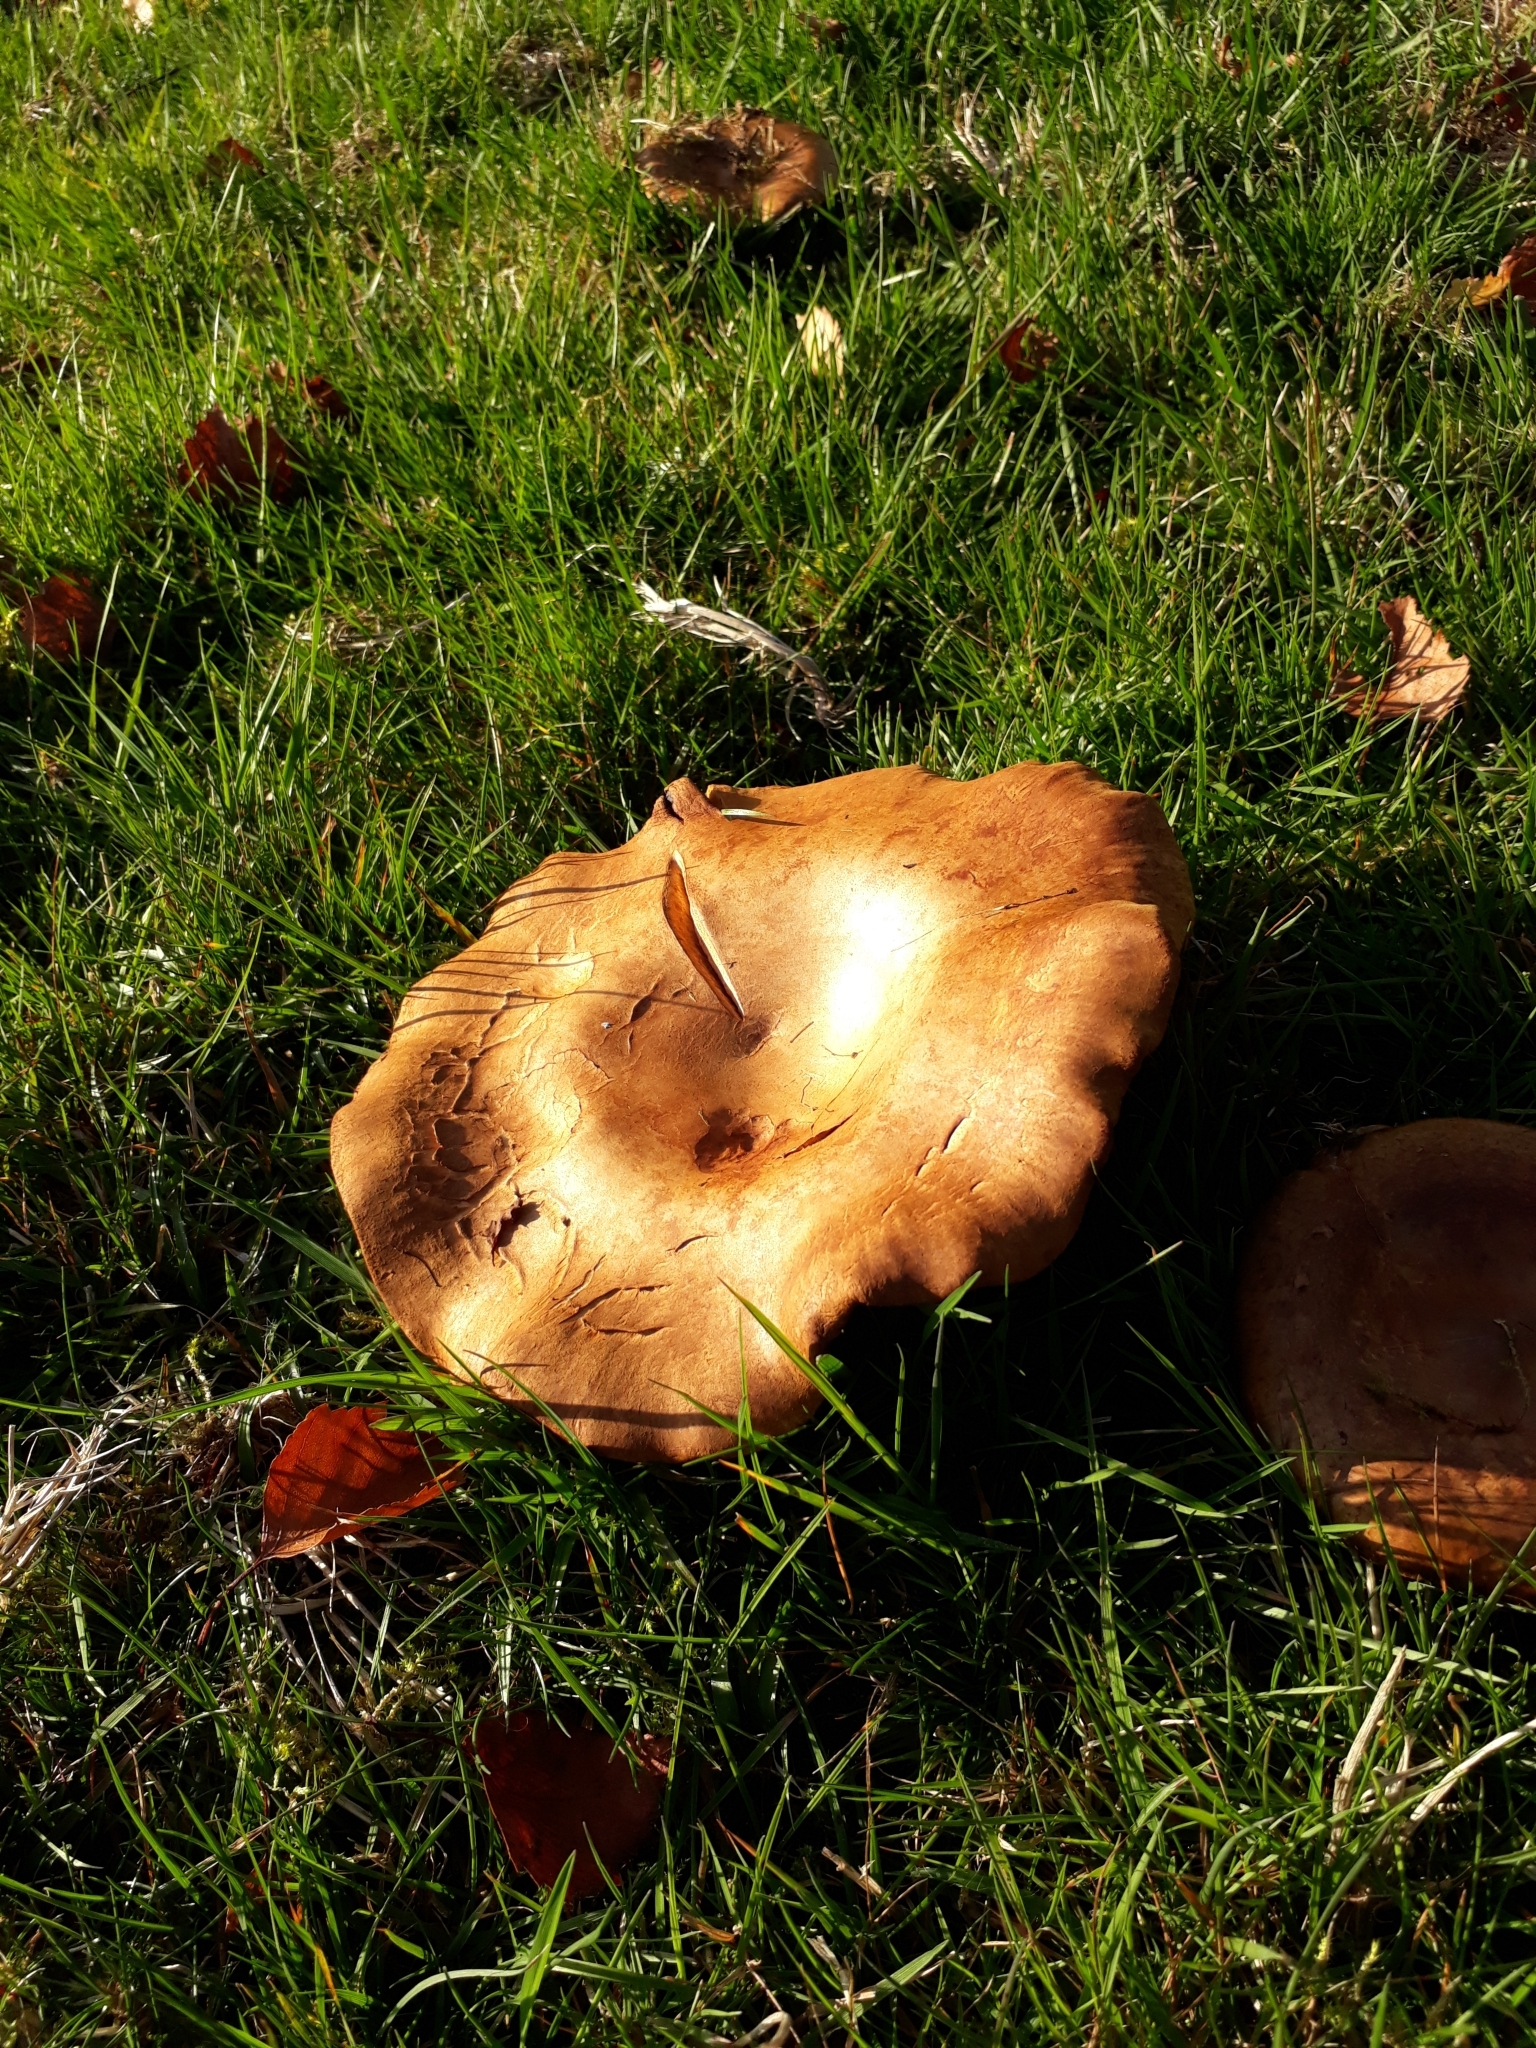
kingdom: Fungi
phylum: Basidiomycota
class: Agaricomycetes
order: Boletales
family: Paxillaceae
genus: Paxillus
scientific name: Paxillus involutus
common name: Brown roll rim
